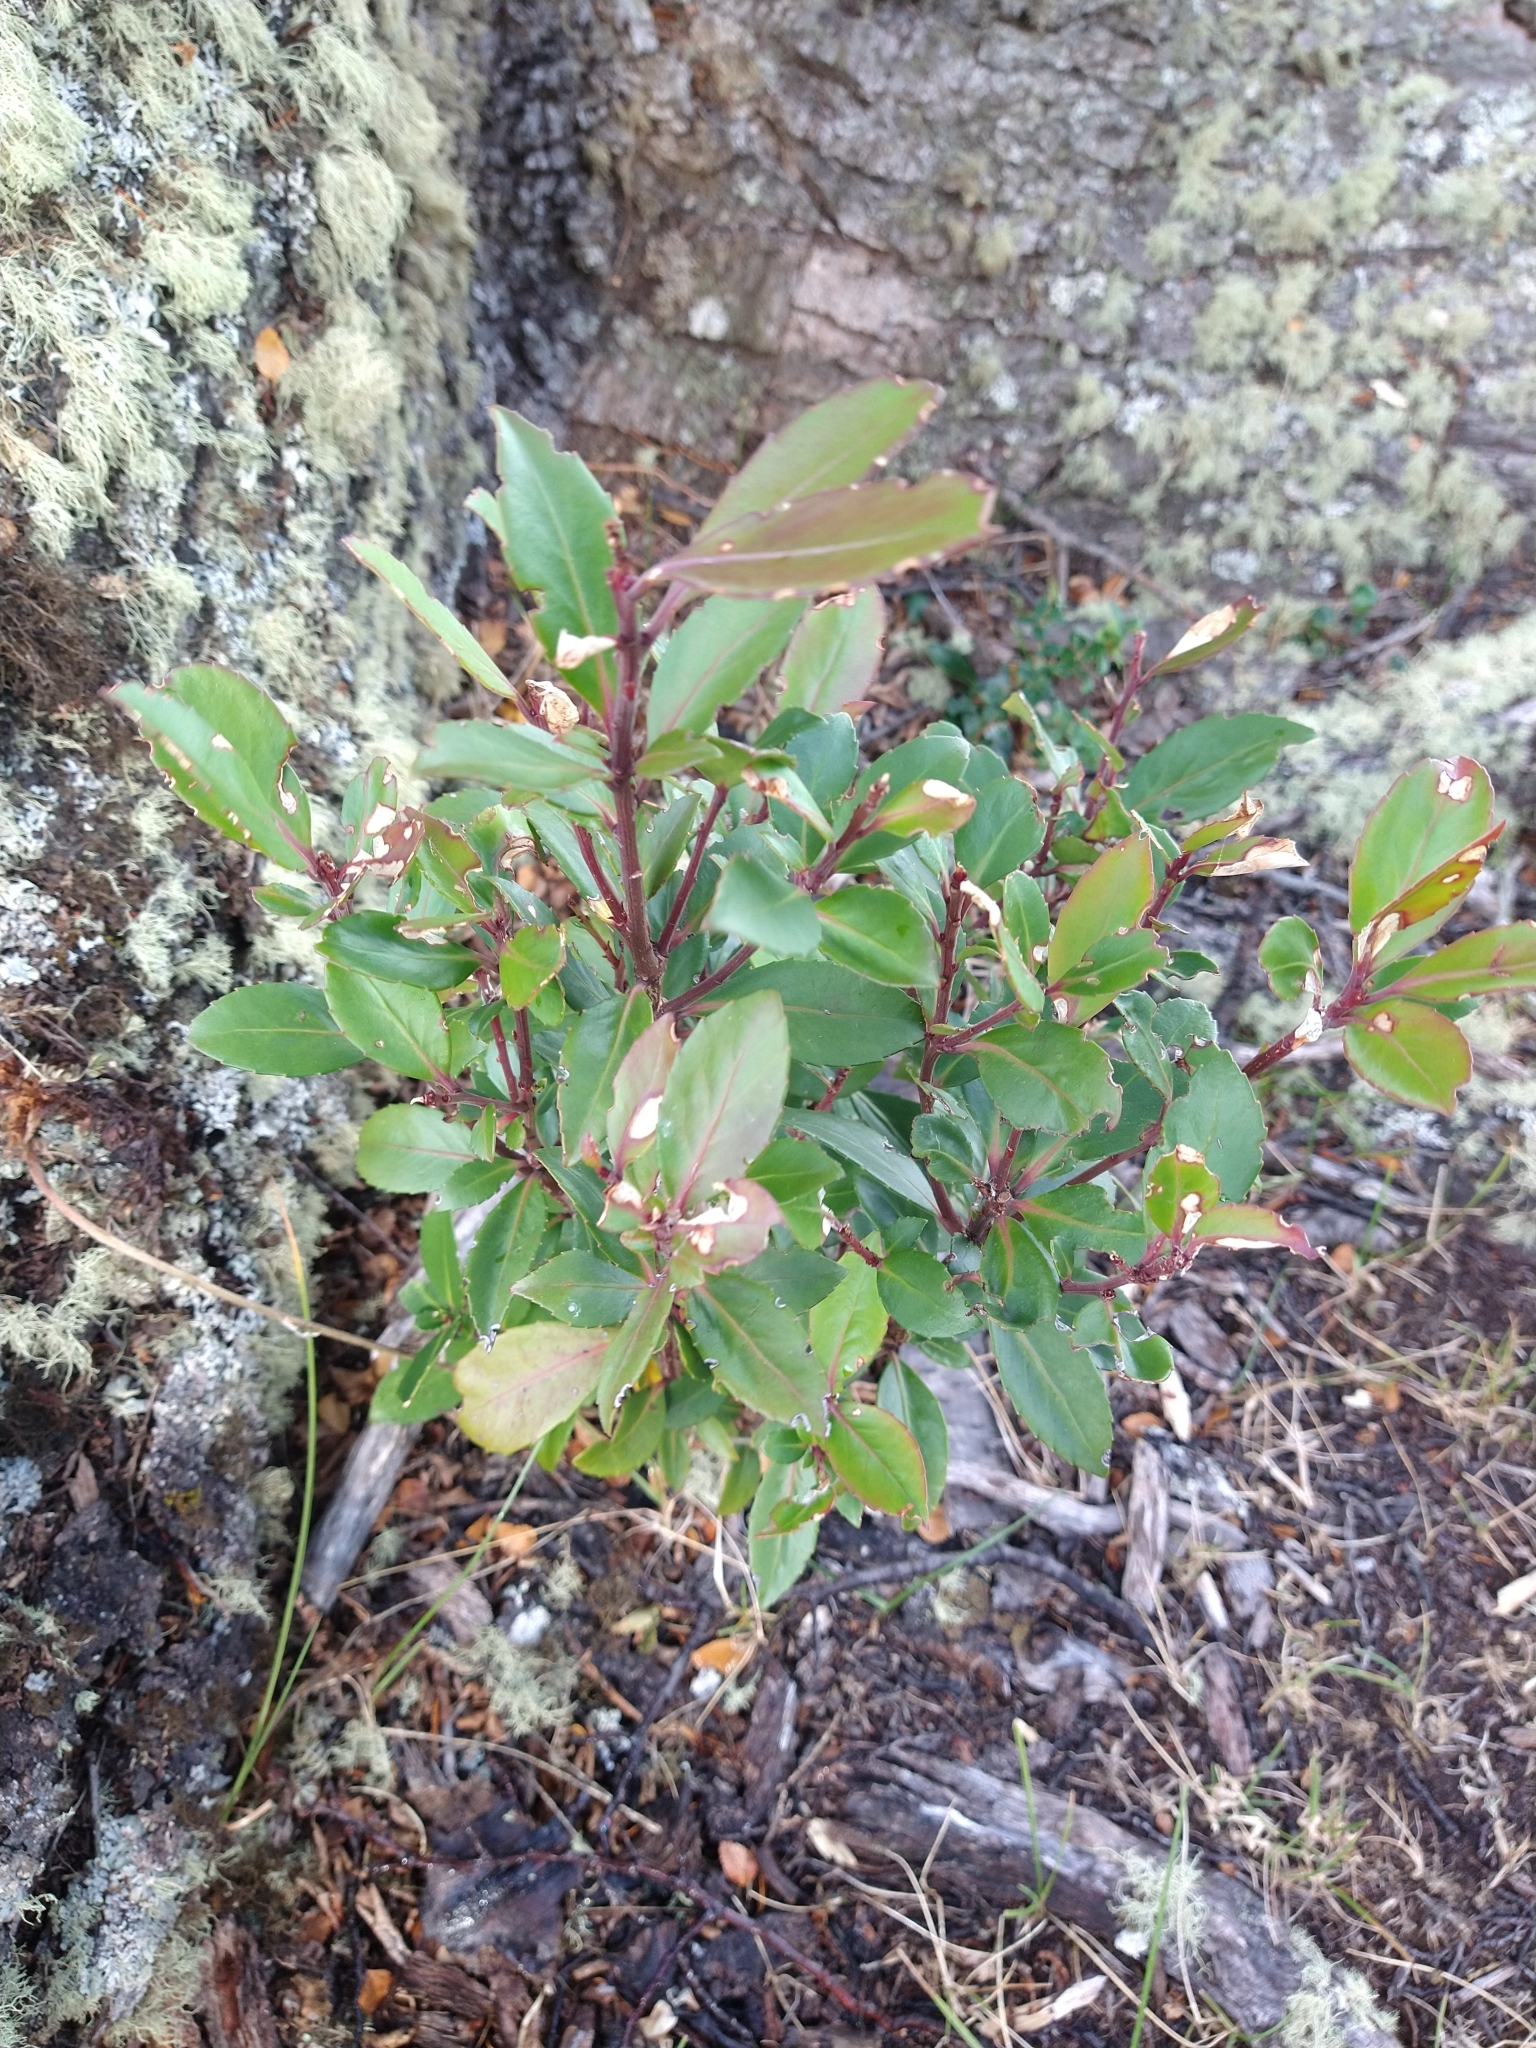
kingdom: Plantae
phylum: Tracheophyta
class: Magnoliopsida
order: Celastrales
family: Celastraceae
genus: Maytenus
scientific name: Maytenus magellanica
